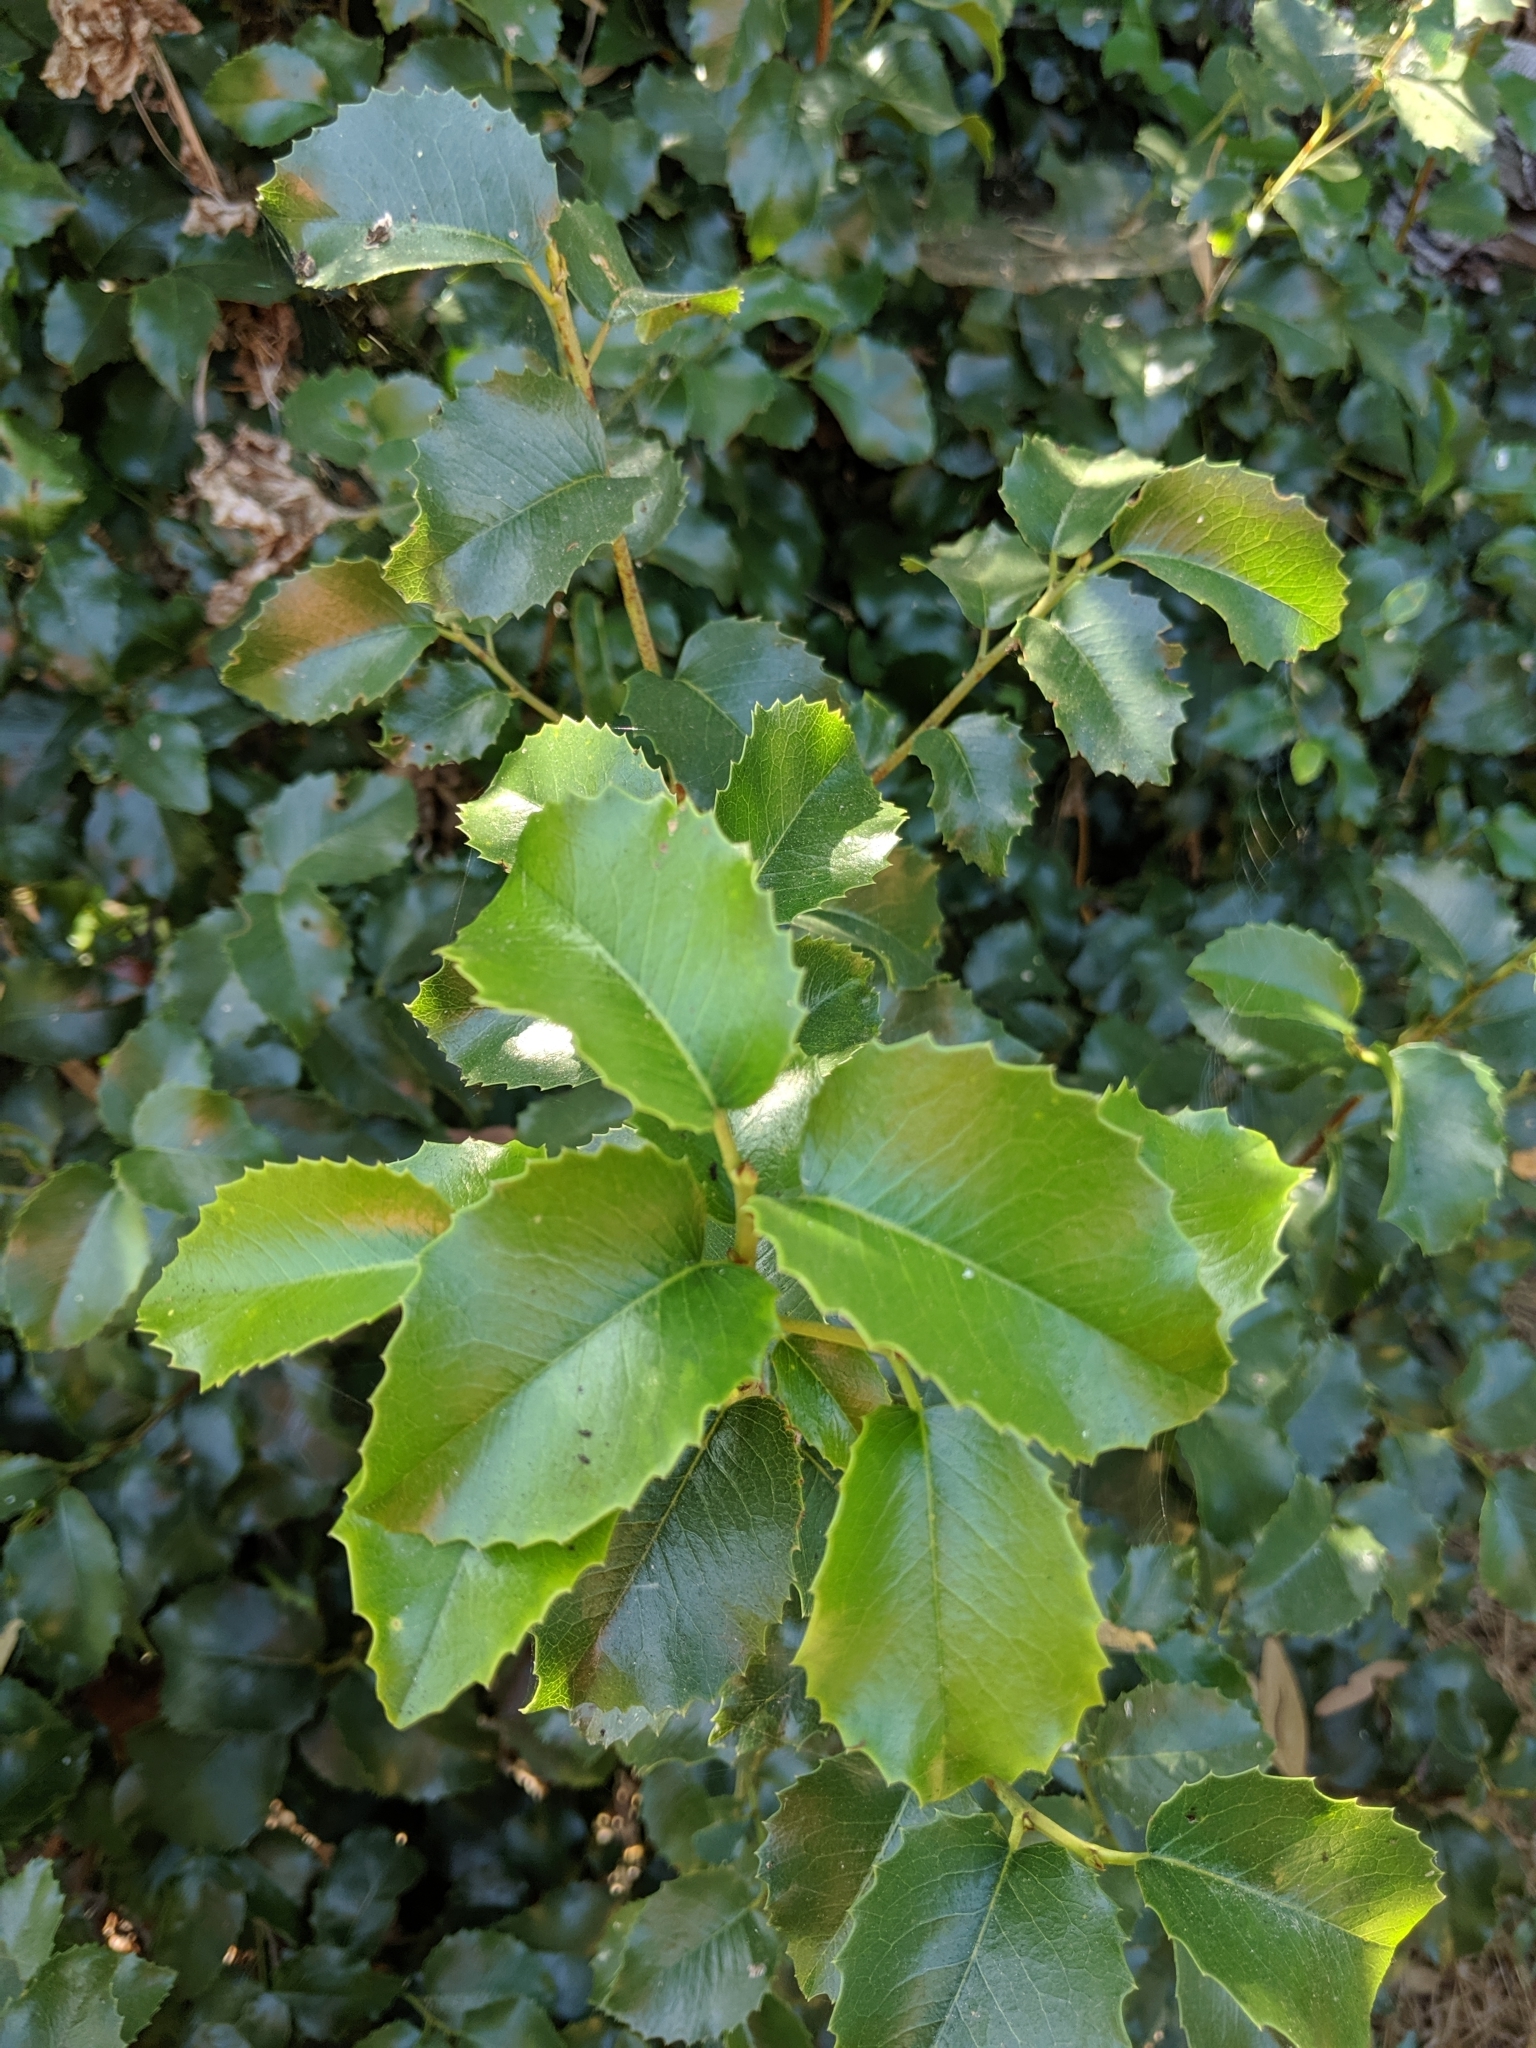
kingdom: Plantae
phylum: Tracheophyta
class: Magnoliopsida
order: Rosales
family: Rosaceae
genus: Prunus
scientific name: Prunus ilicifolia
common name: Hollyleaf cherry
